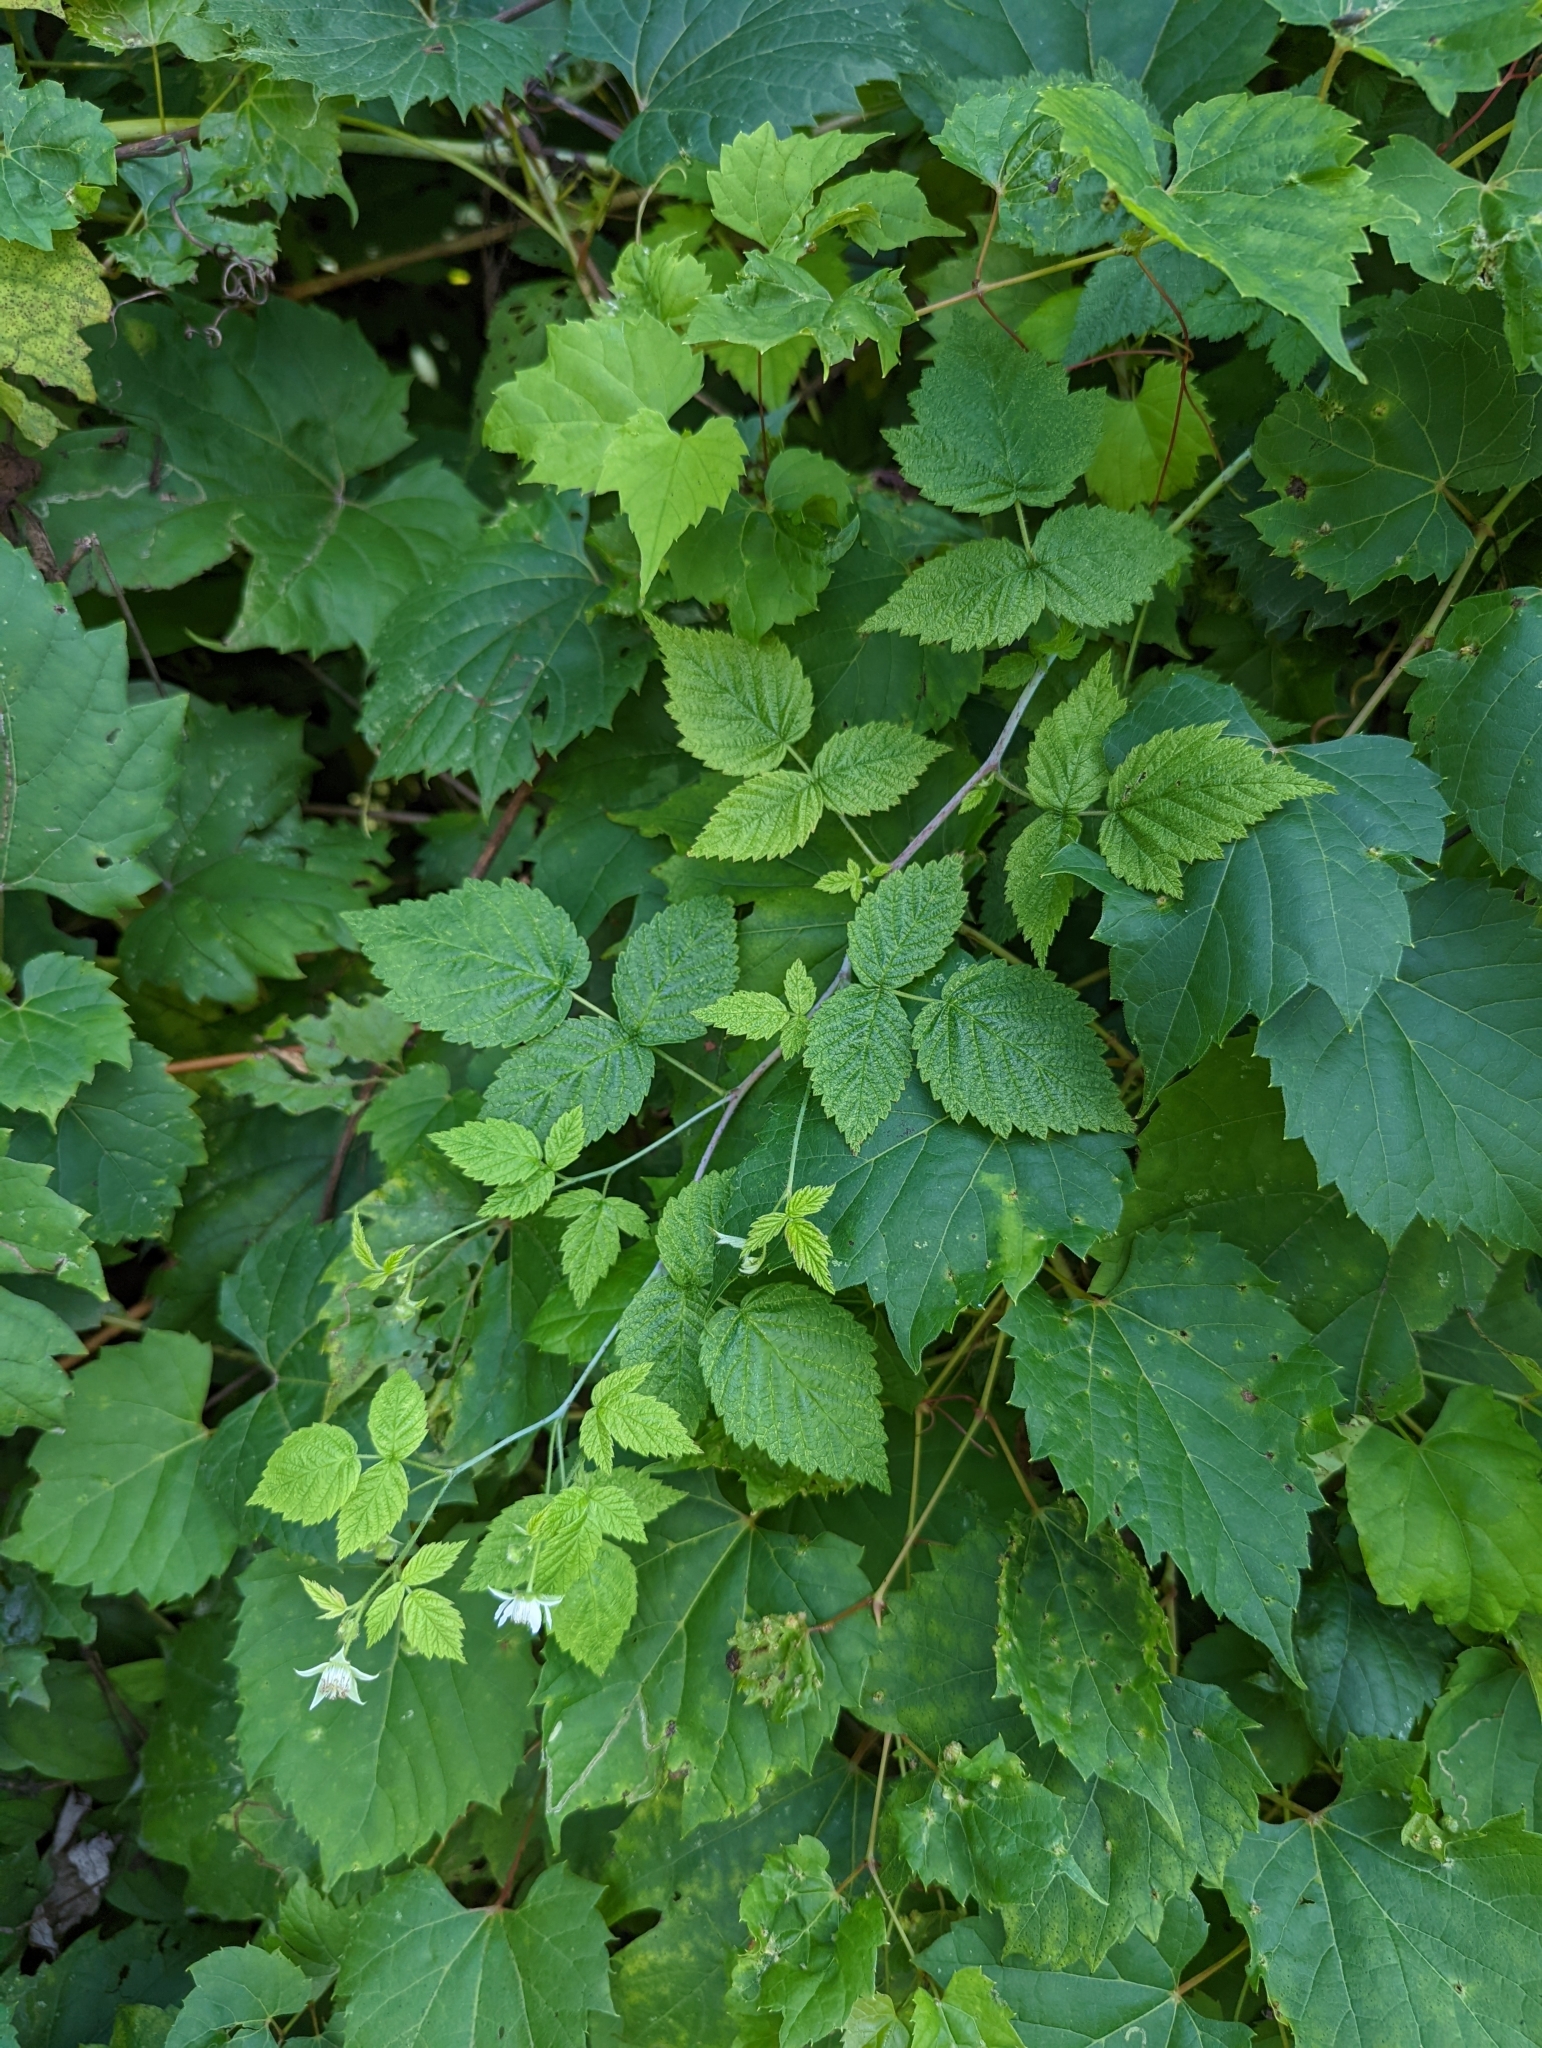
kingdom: Plantae
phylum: Tracheophyta
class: Magnoliopsida
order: Rosales
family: Rosaceae
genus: Rubus
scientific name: Rubus occidentalis
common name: Black raspberry
